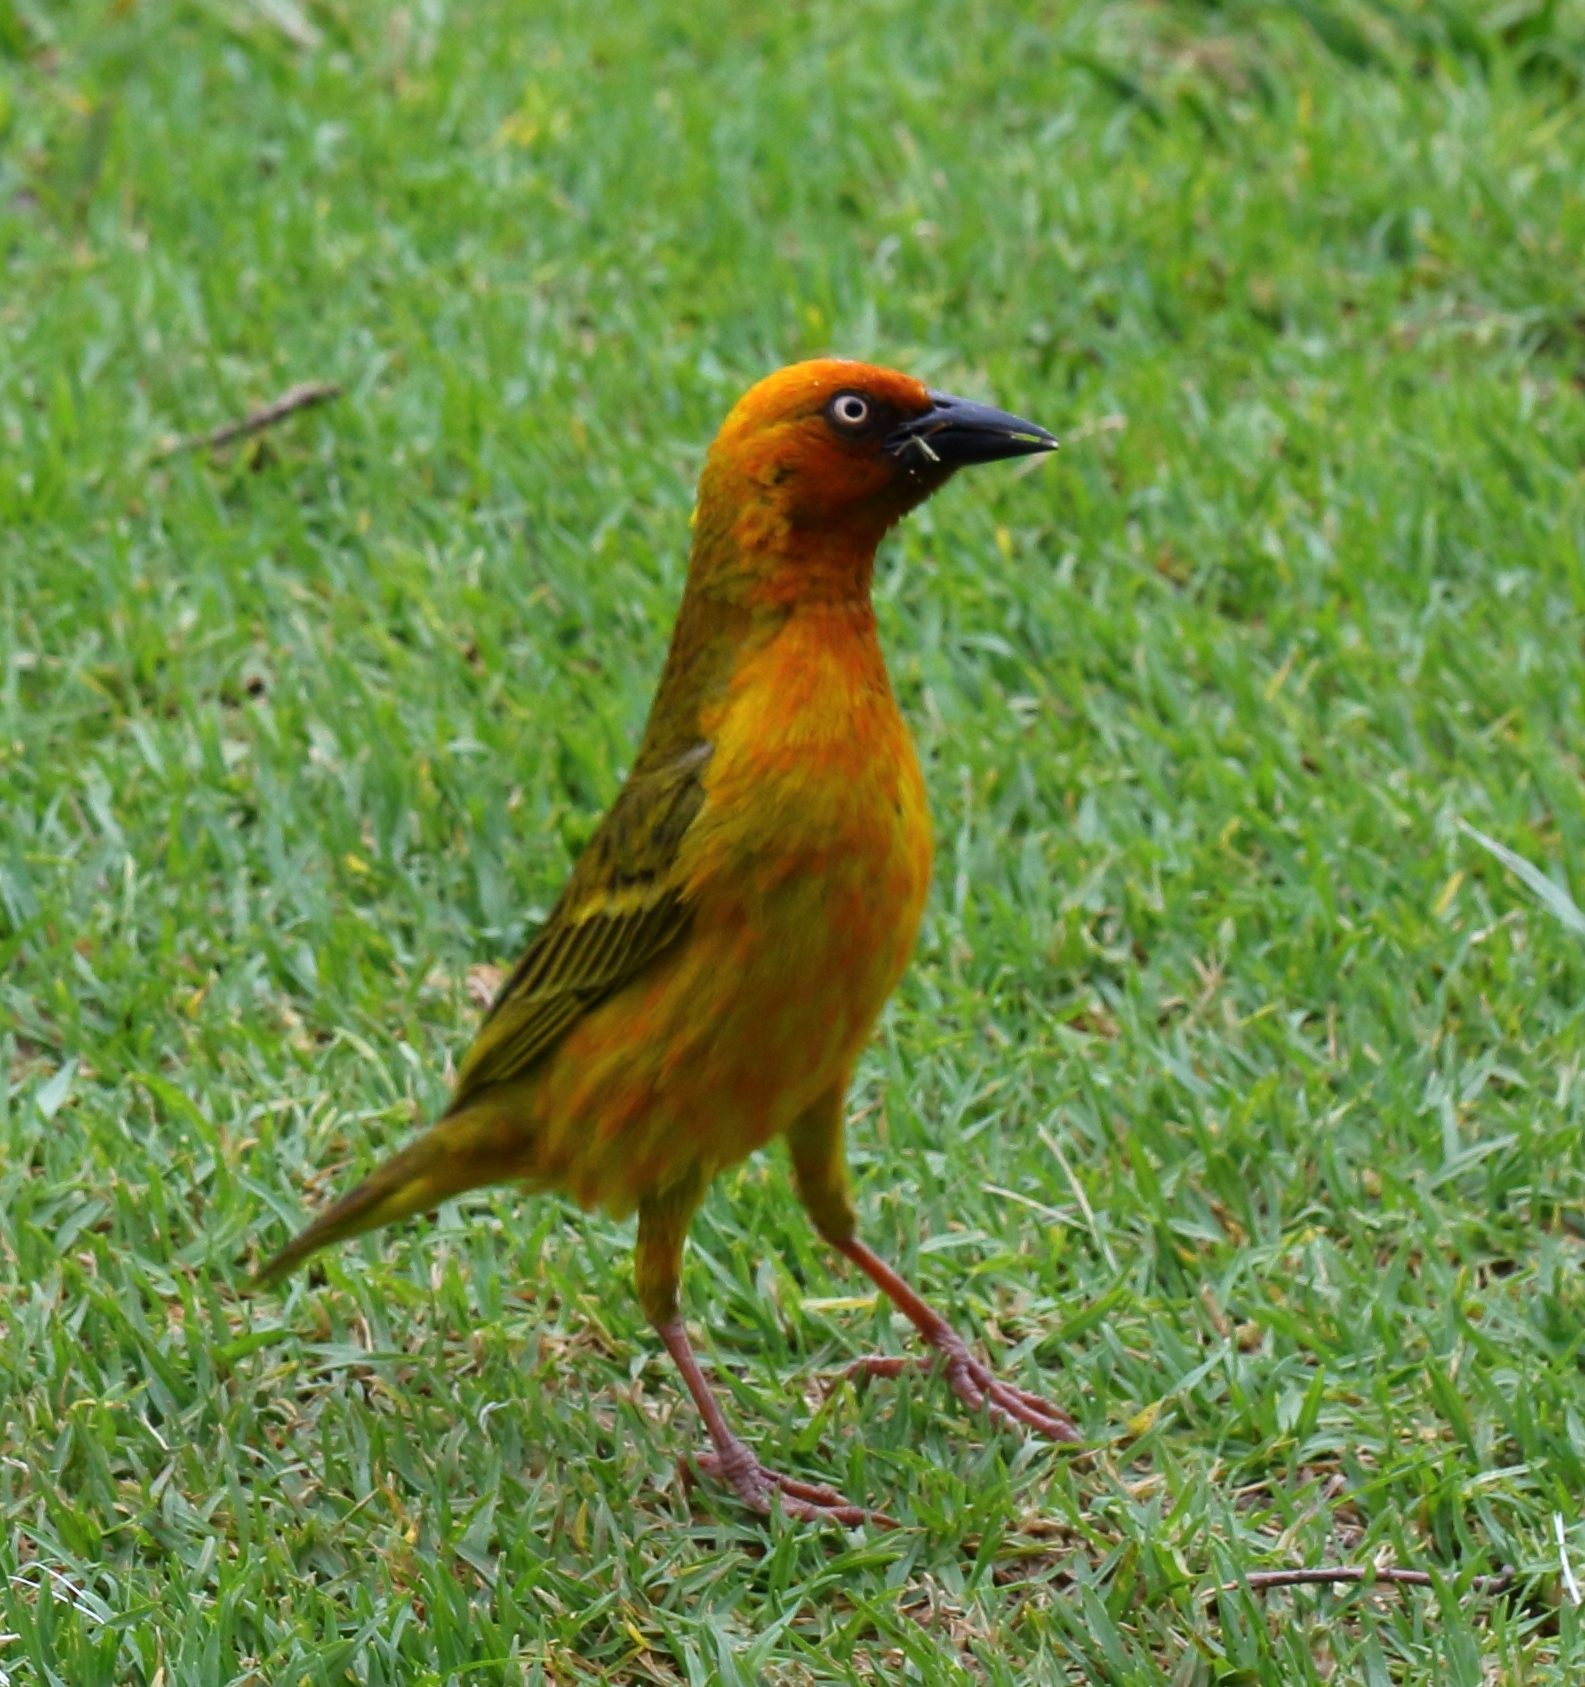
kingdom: Animalia
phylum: Chordata
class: Aves
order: Passeriformes
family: Ploceidae
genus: Ploceus
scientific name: Ploceus capensis
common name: Cape weaver
